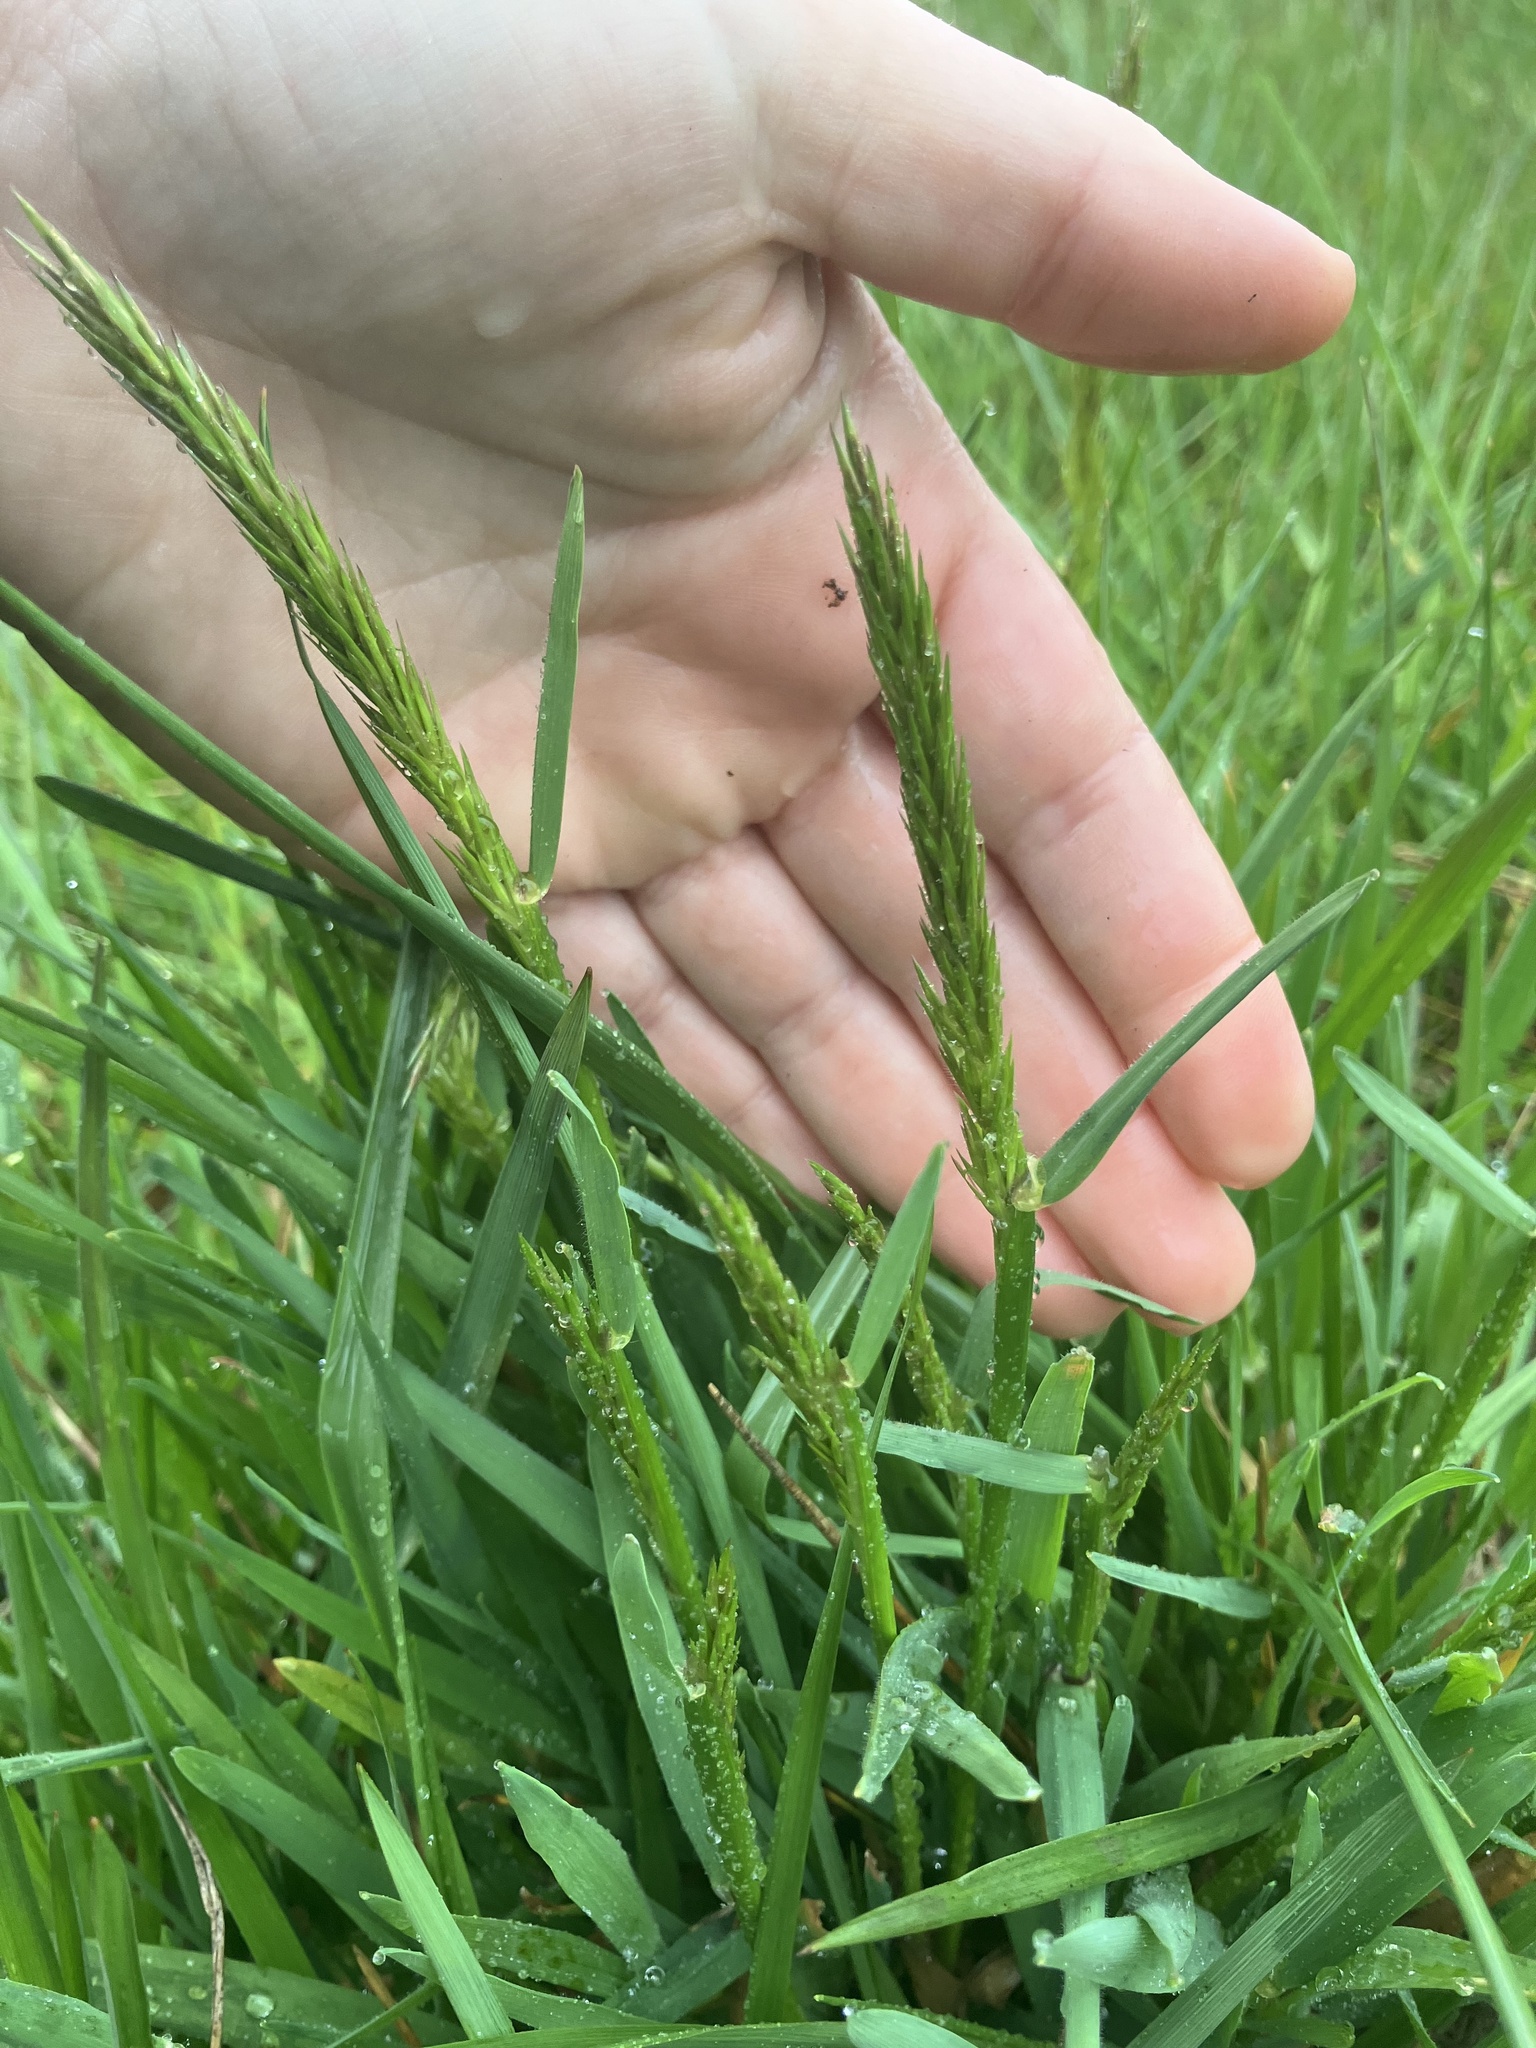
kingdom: Plantae
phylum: Tracheophyta
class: Liliopsida
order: Poales
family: Poaceae
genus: Anthoxanthum
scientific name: Anthoxanthum odoratum
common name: Sweet vernalgrass
